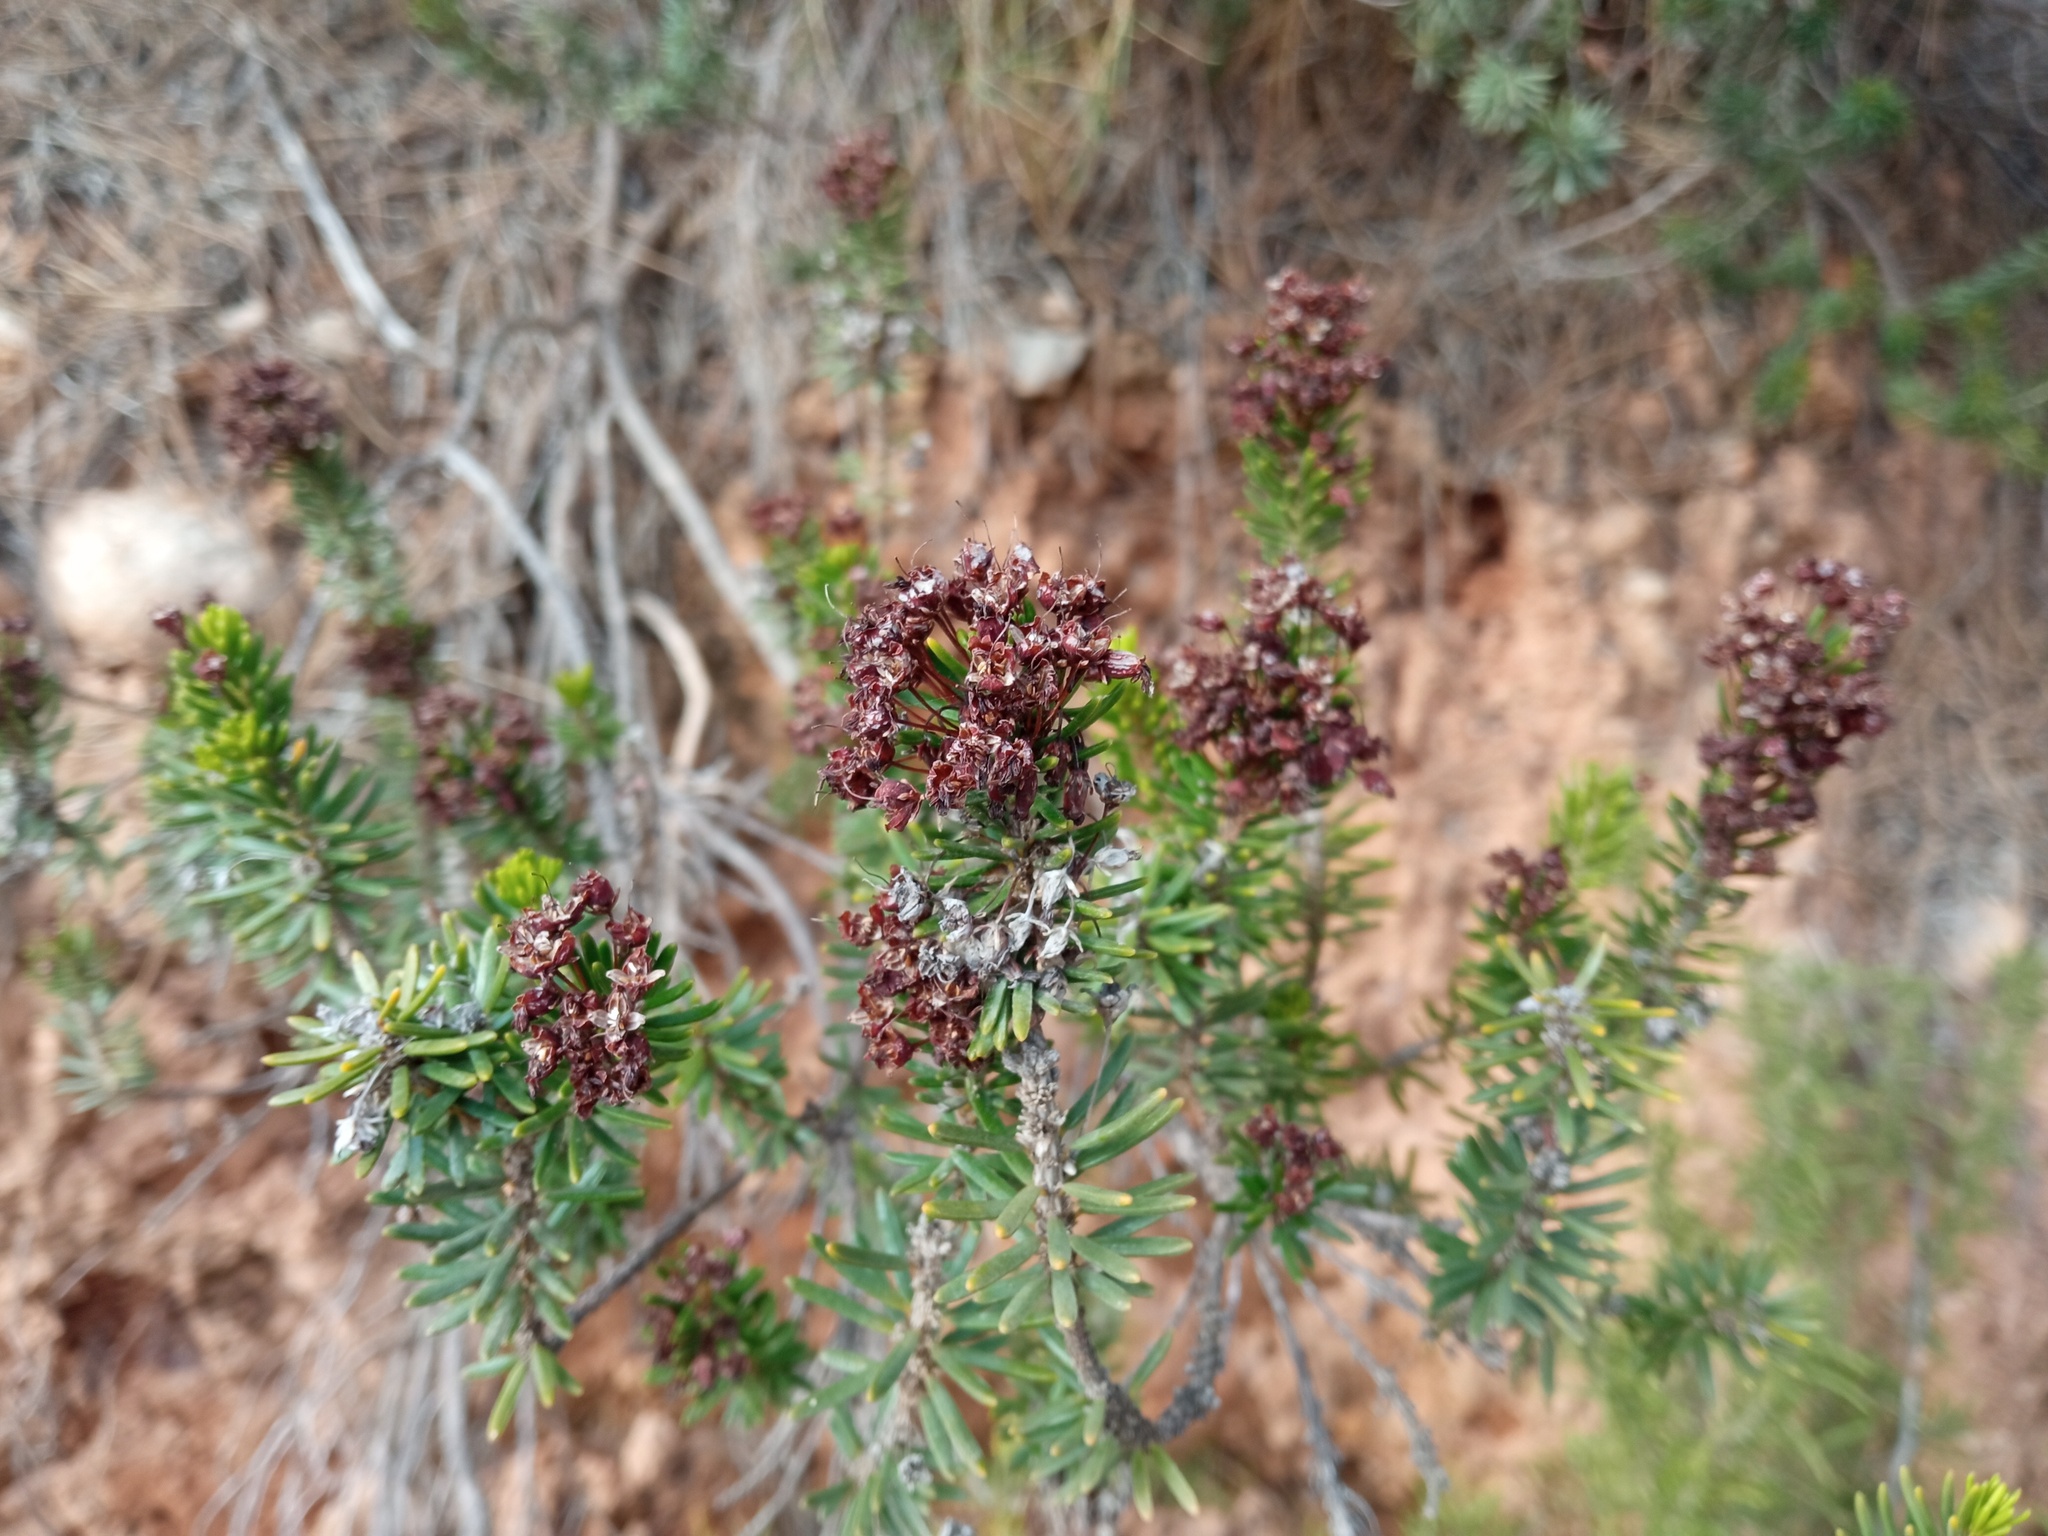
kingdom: Plantae
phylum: Tracheophyta
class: Magnoliopsida
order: Ericales
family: Ericaceae
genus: Erica
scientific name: Erica multiflora
